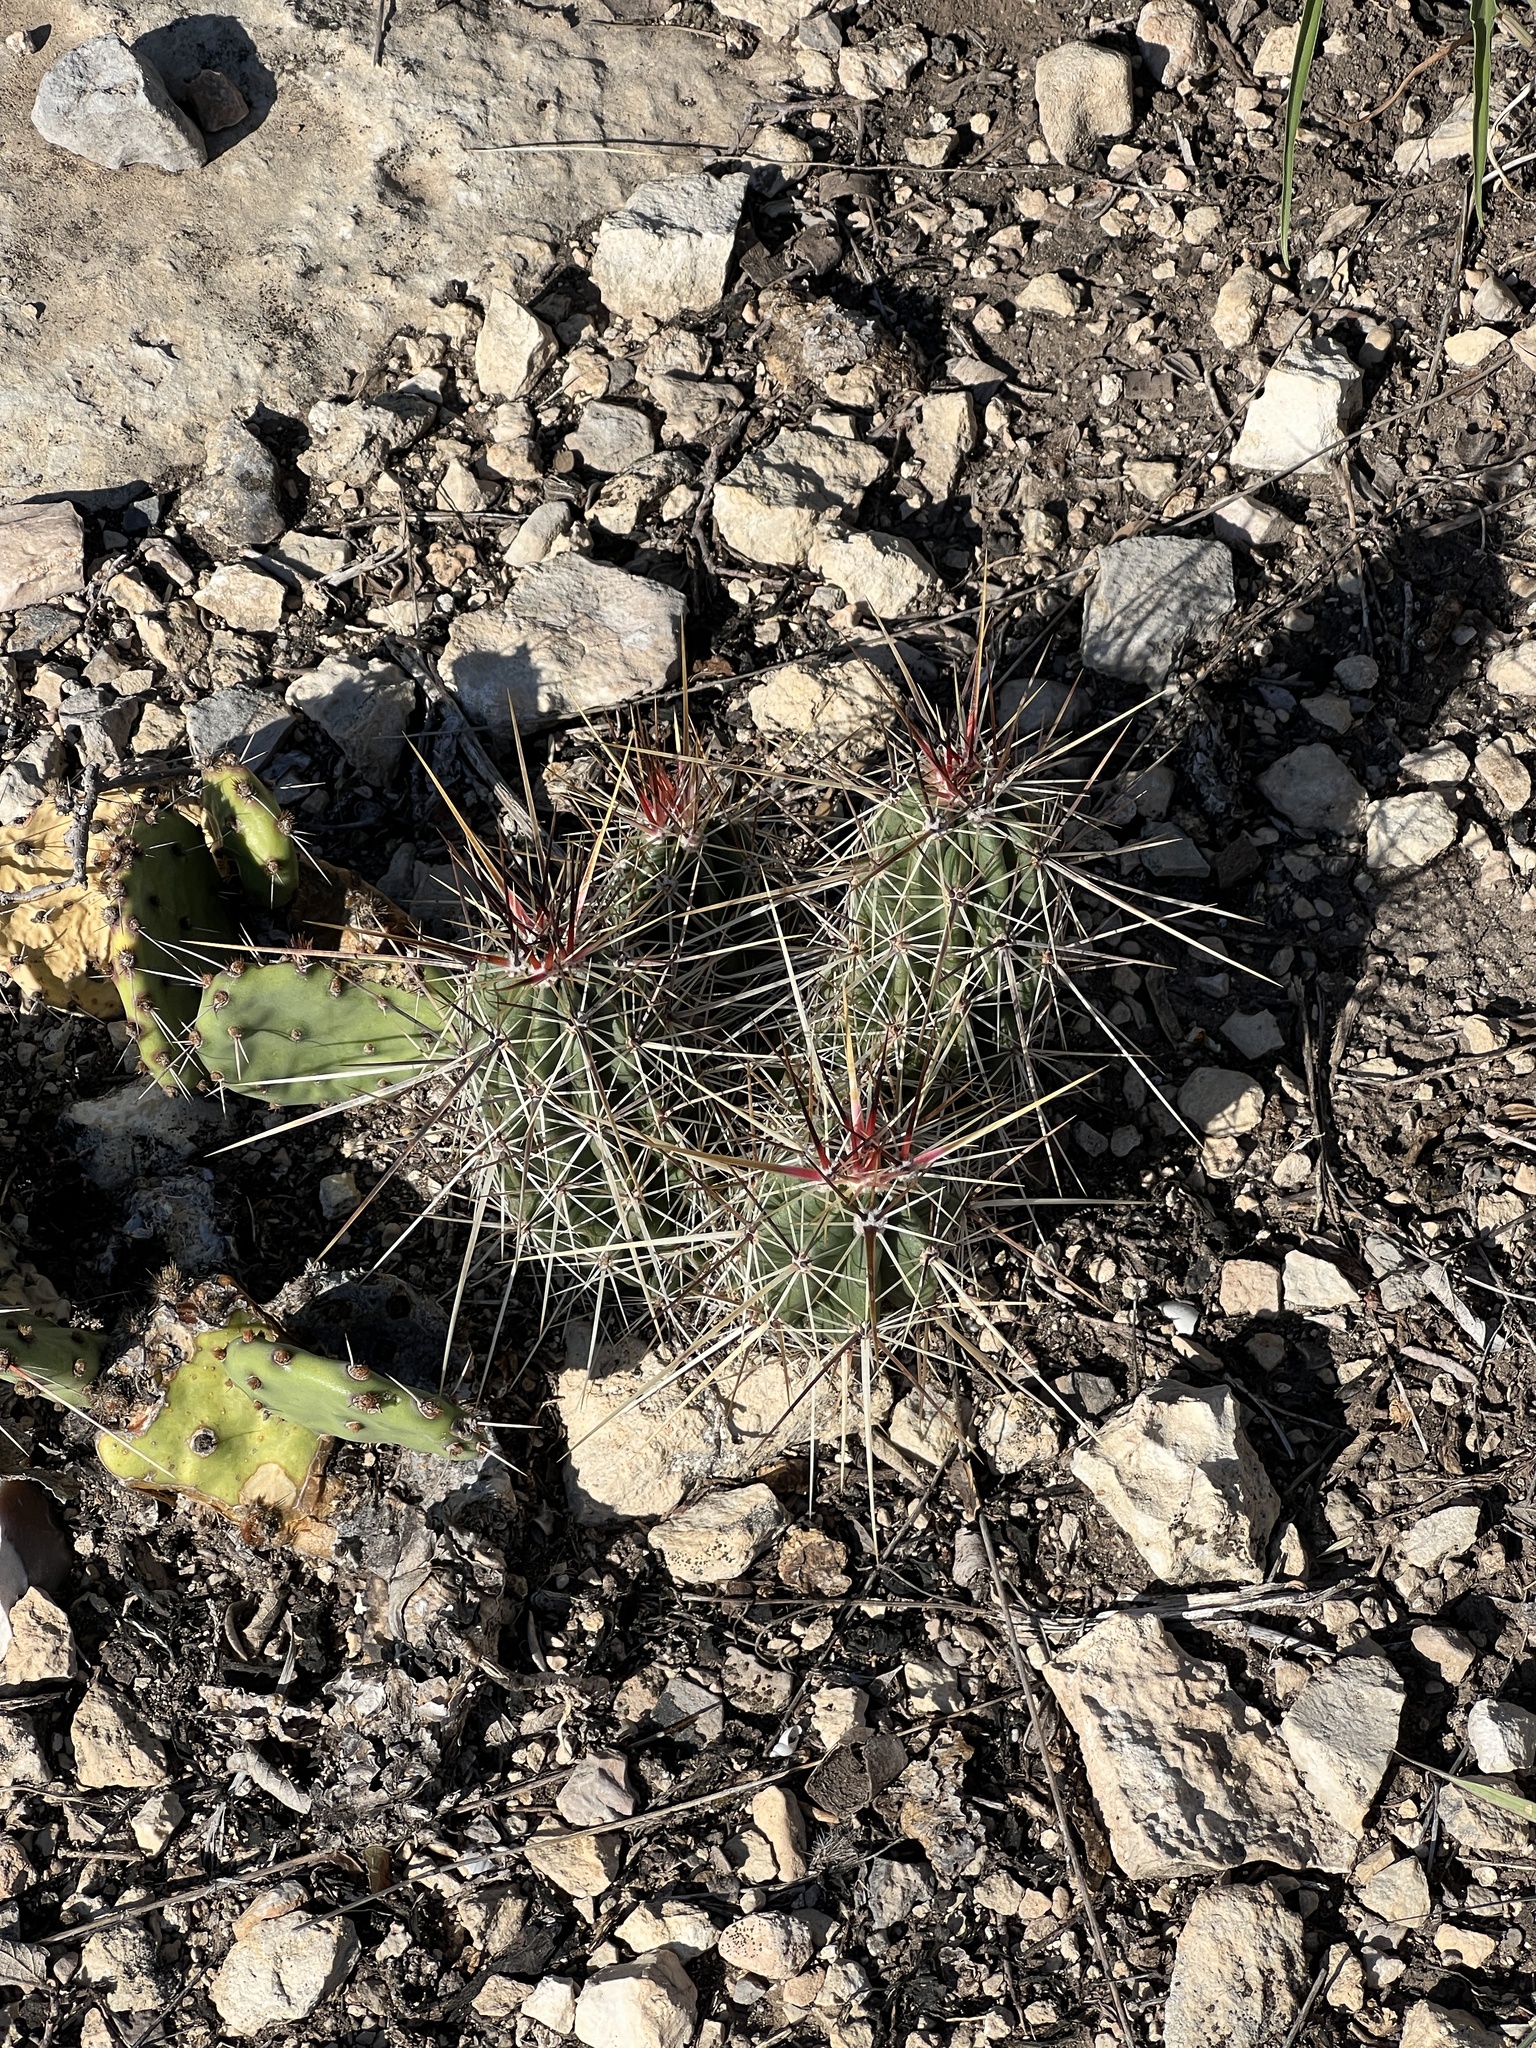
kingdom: Plantae
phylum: Tracheophyta
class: Magnoliopsida
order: Caryophyllales
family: Cactaceae
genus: Echinocereus
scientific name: Echinocereus enneacanthus
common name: Pitaya
